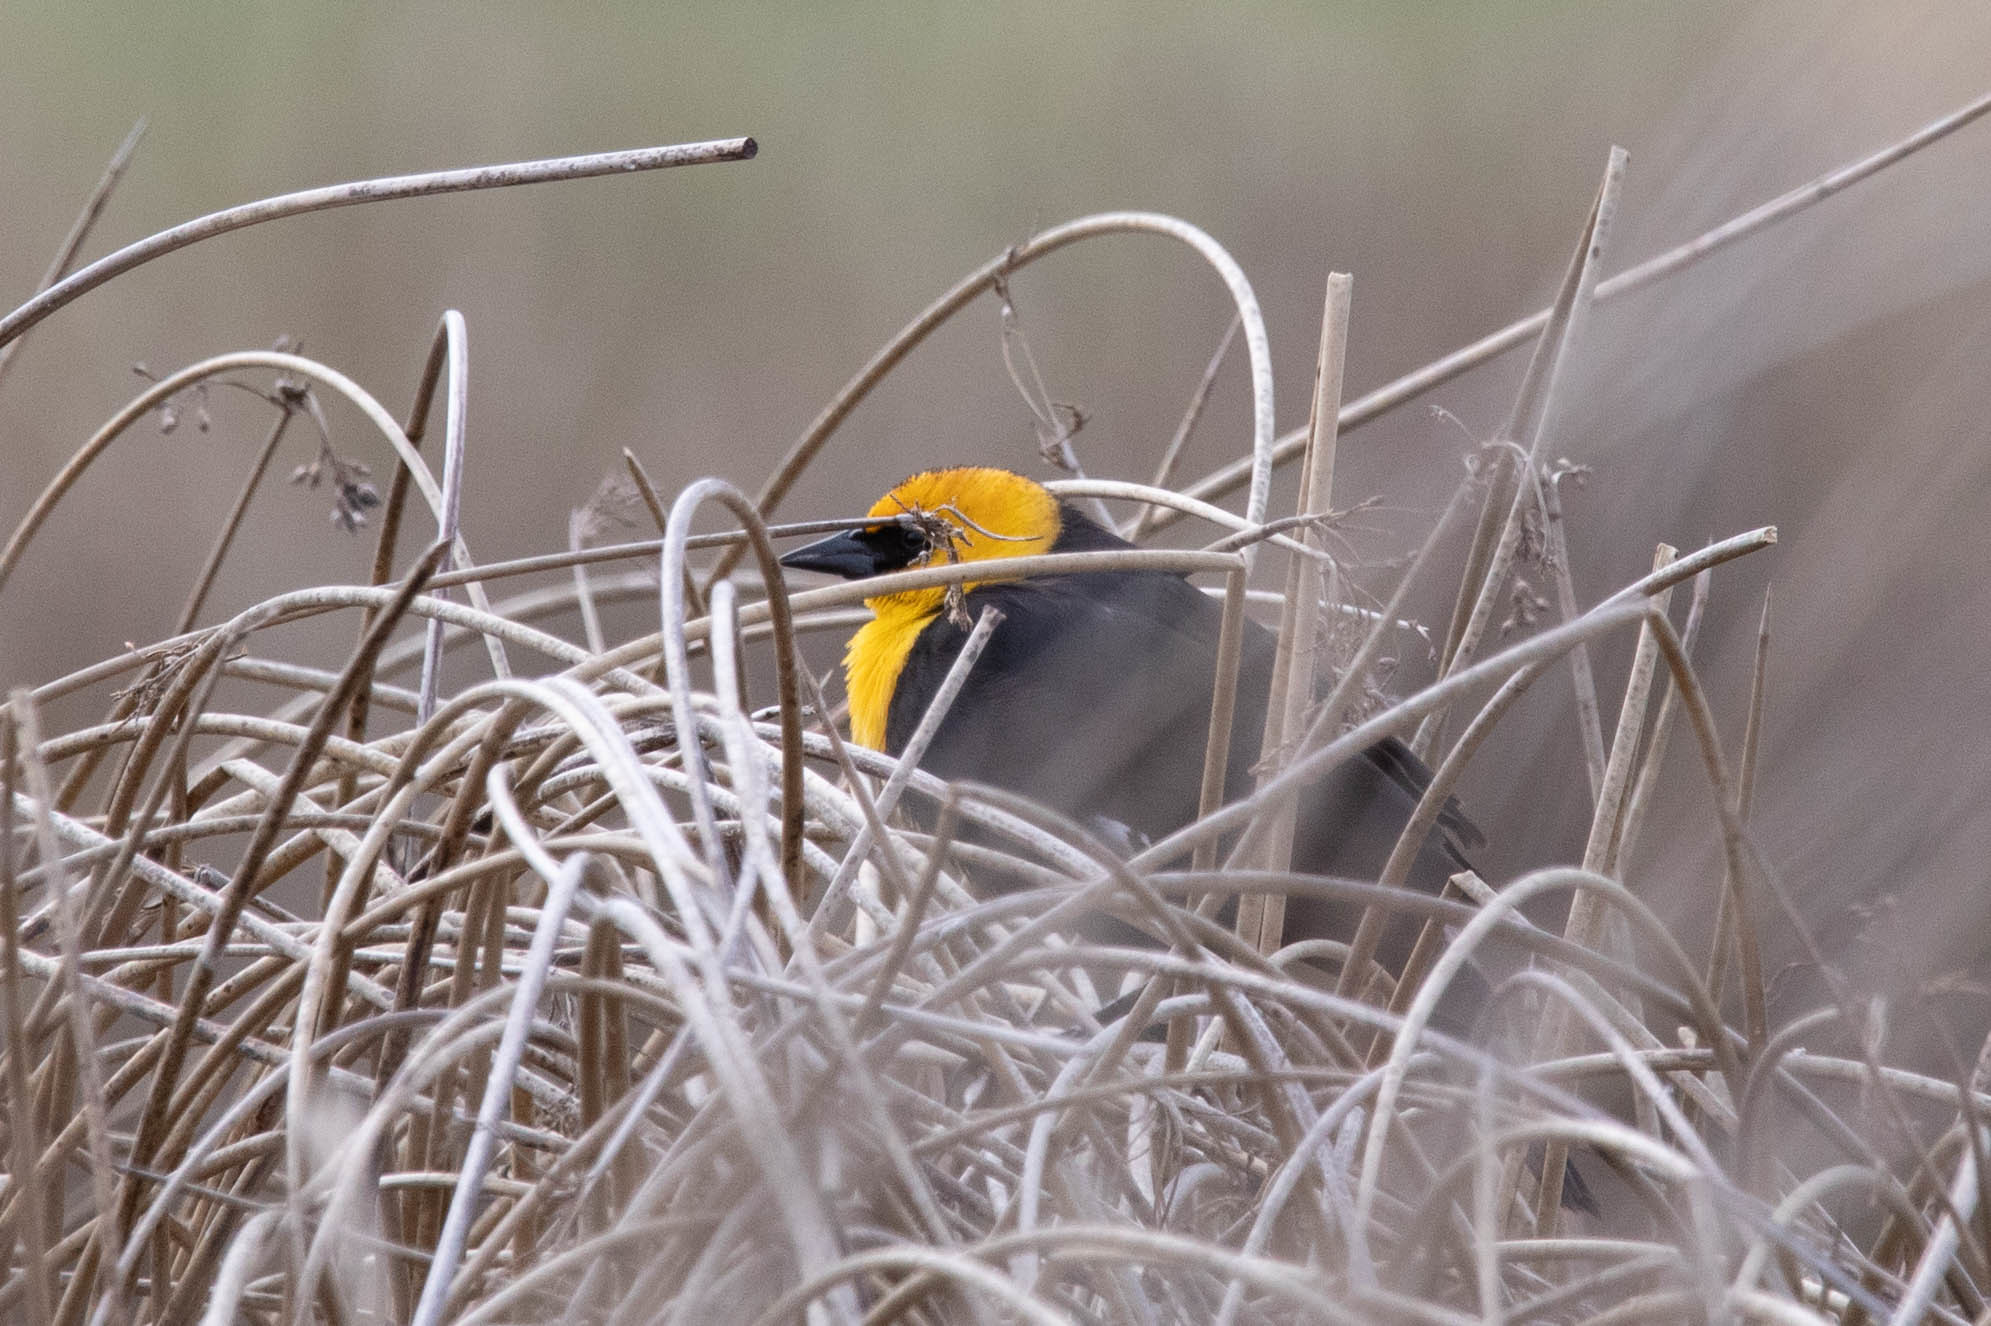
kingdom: Animalia
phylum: Chordata
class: Aves
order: Passeriformes
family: Icteridae
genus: Xanthocephalus
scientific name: Xanthocephalus xanthocephalus
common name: Yellow-headed blackbird
